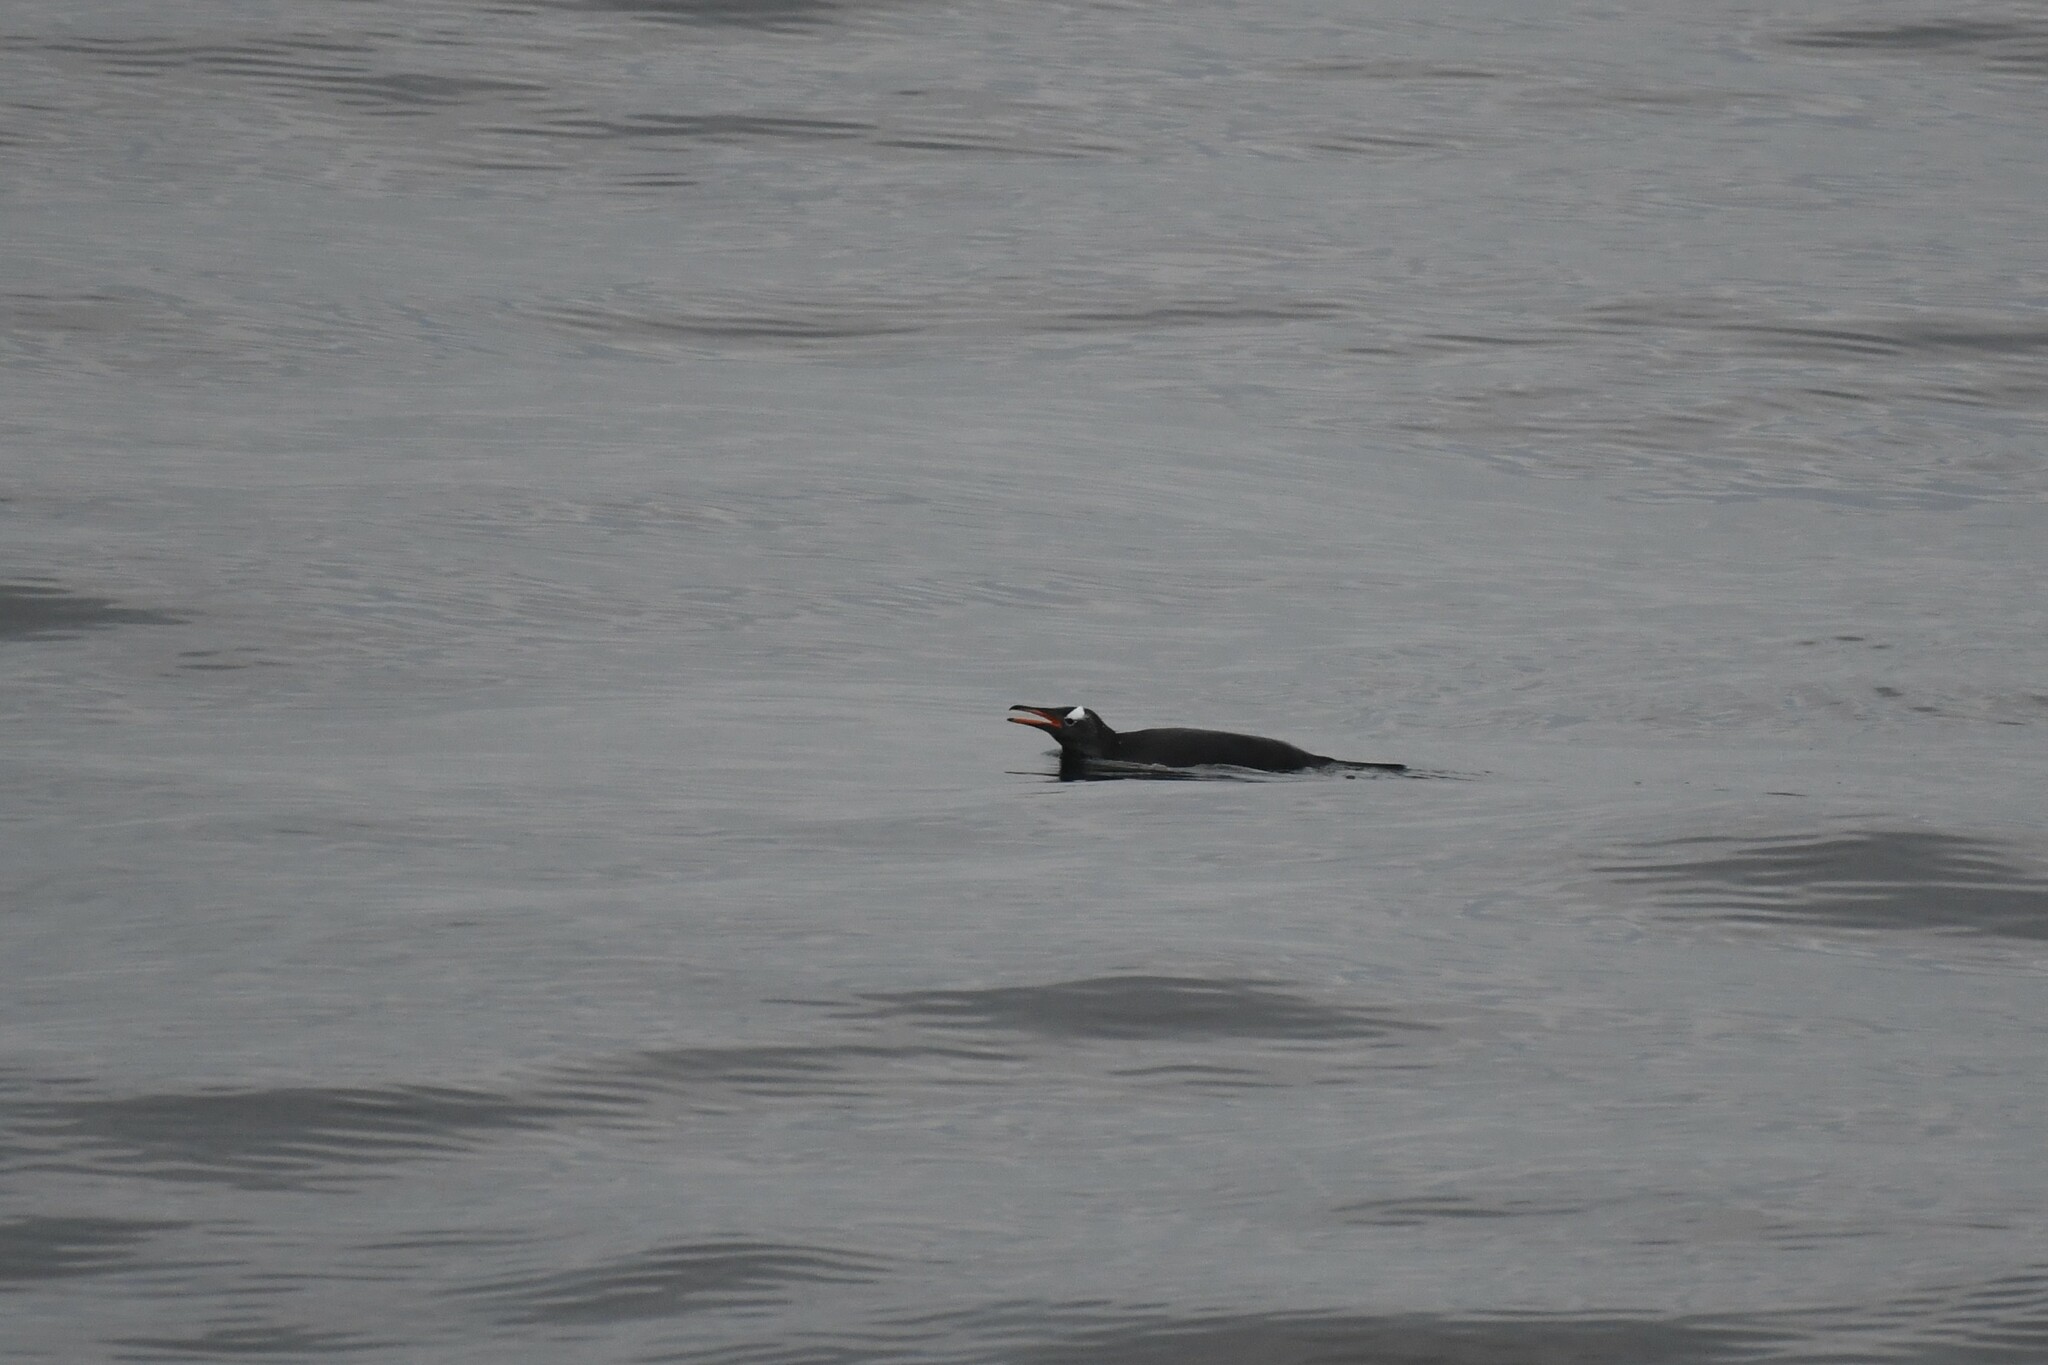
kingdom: Animalia
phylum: Chordata
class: Aves
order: Sphenisciformes
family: Spheniscidae
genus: Pygoscelis
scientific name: Pygoscelis papua
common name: Gentoo penguin
